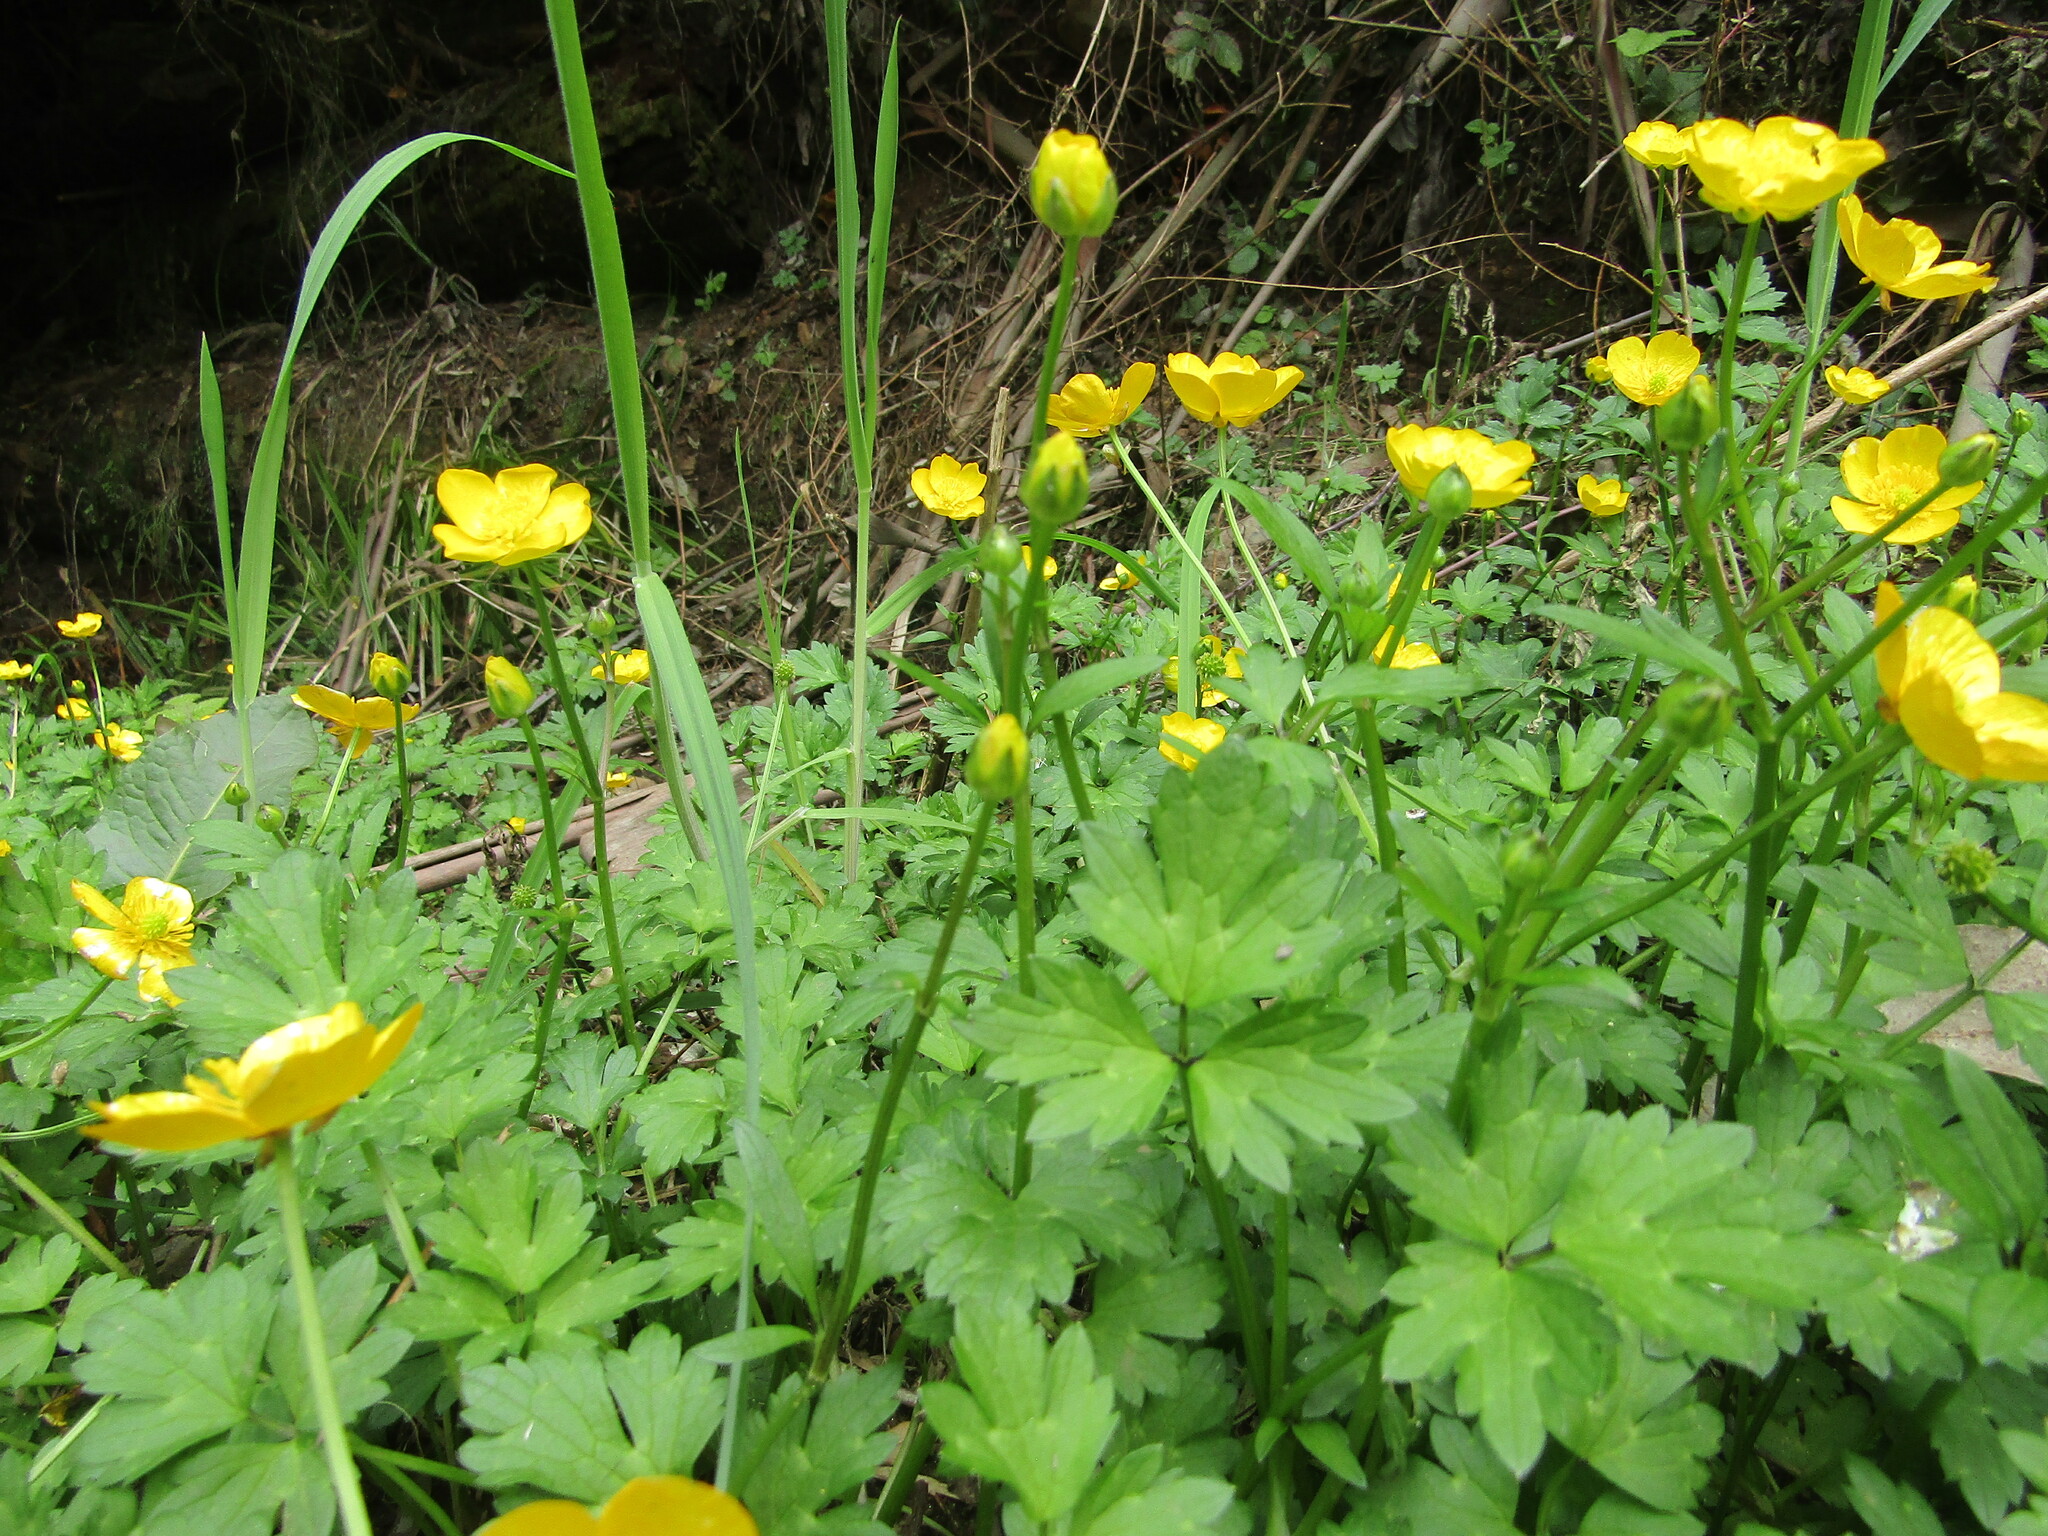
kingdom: Plantae
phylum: Tracheophyta
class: Magnoliopsida
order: Ranunculales
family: Ranunculaceae
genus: Ranunculus
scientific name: Ranunculus repens
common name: Creeping buttercup
